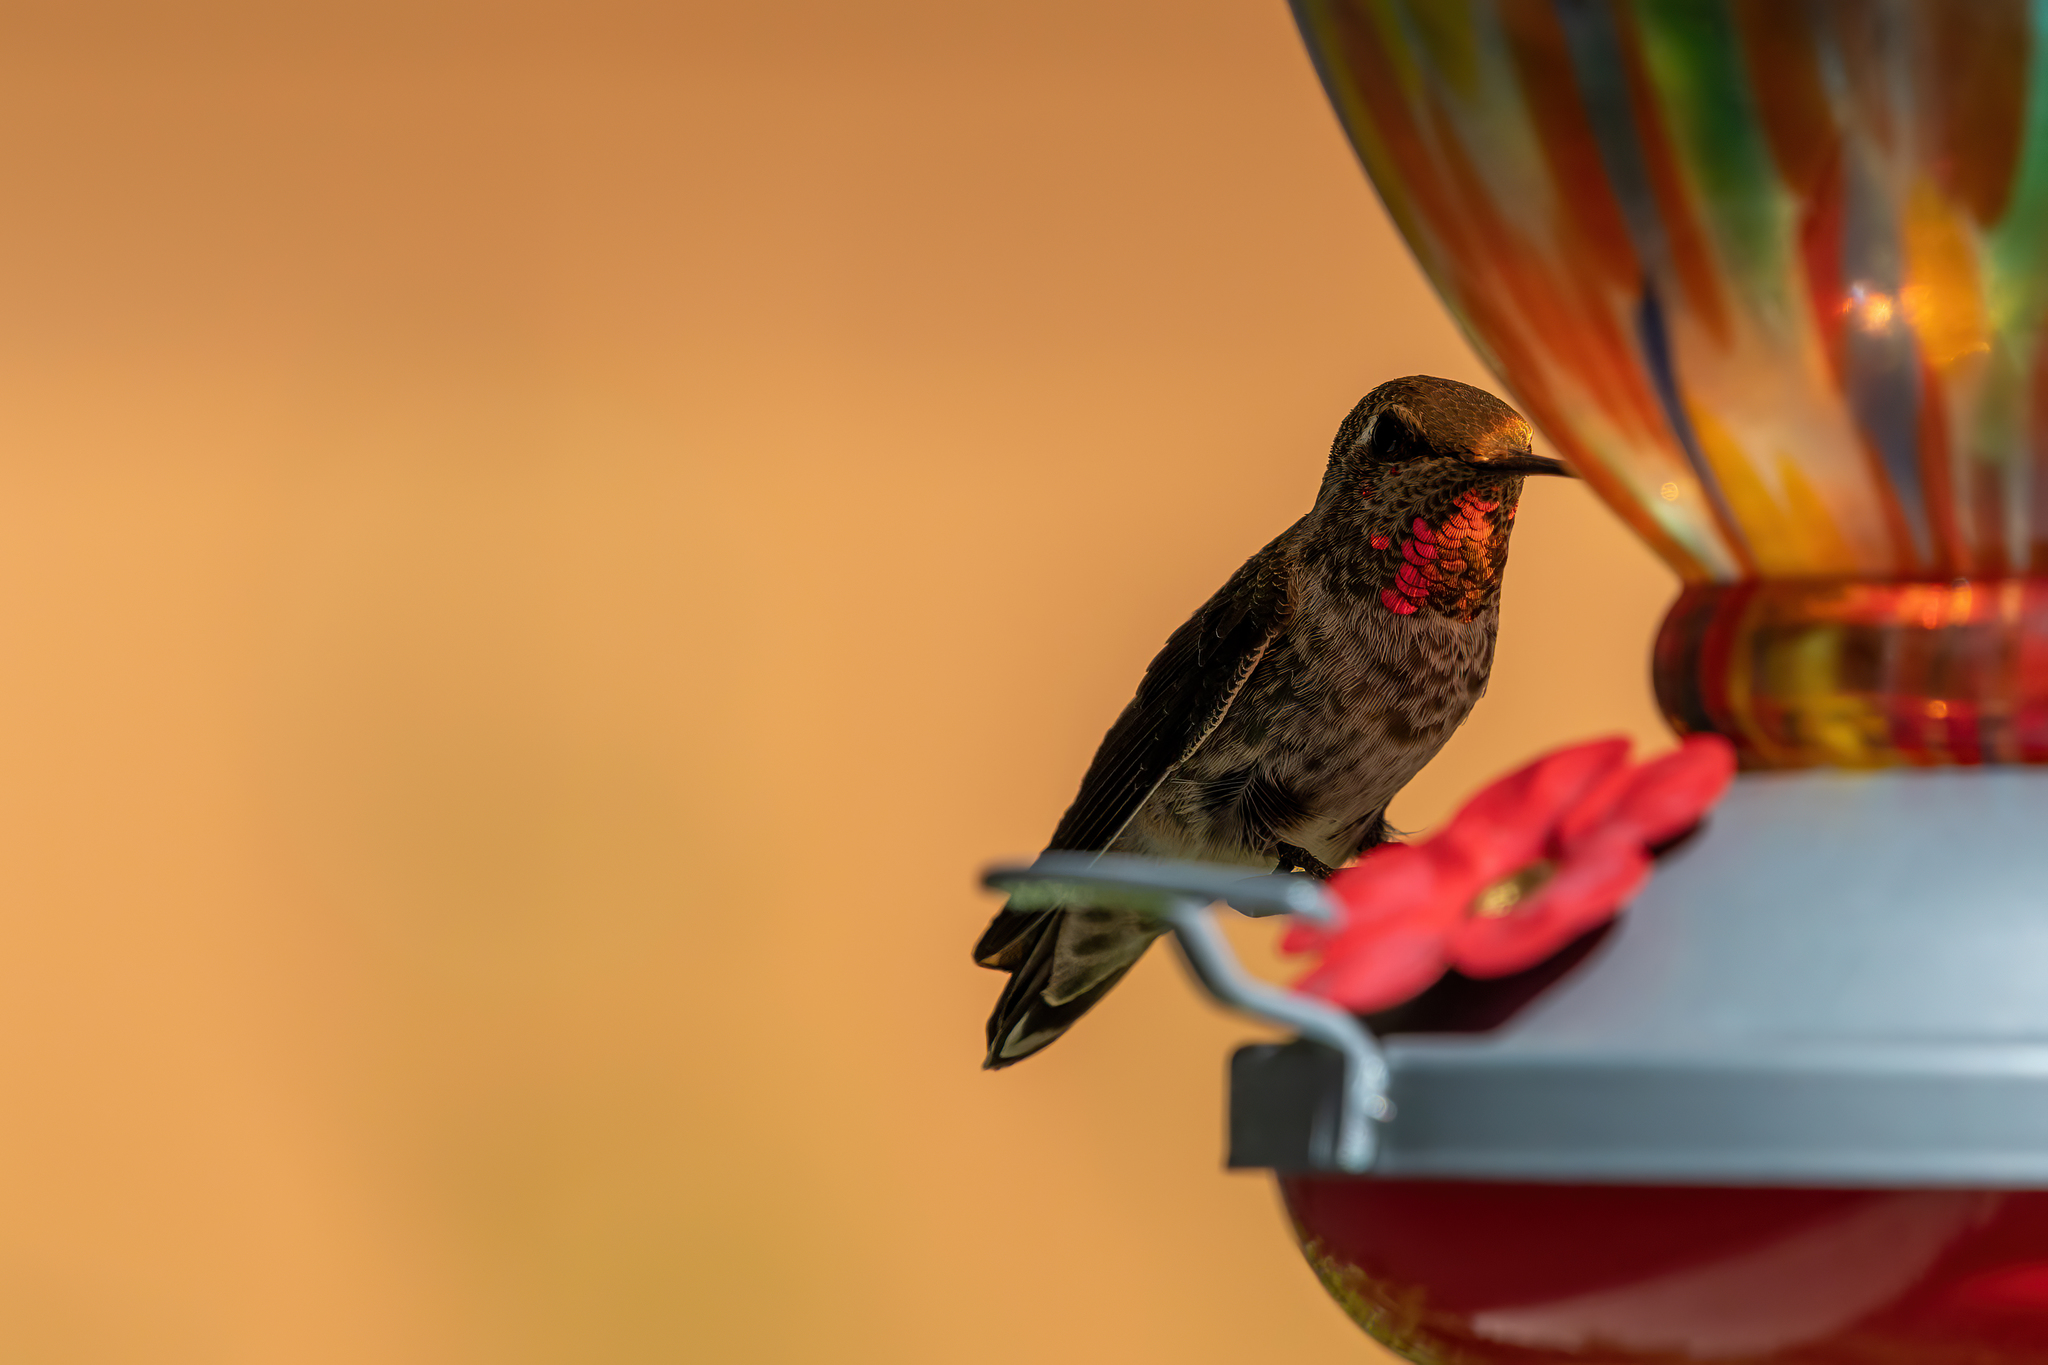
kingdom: Animalia
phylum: Chordata
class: Aves
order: Apodiformes
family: Trochilidae
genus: Calypte
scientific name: Calypte anna
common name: Anna's hummingbird
